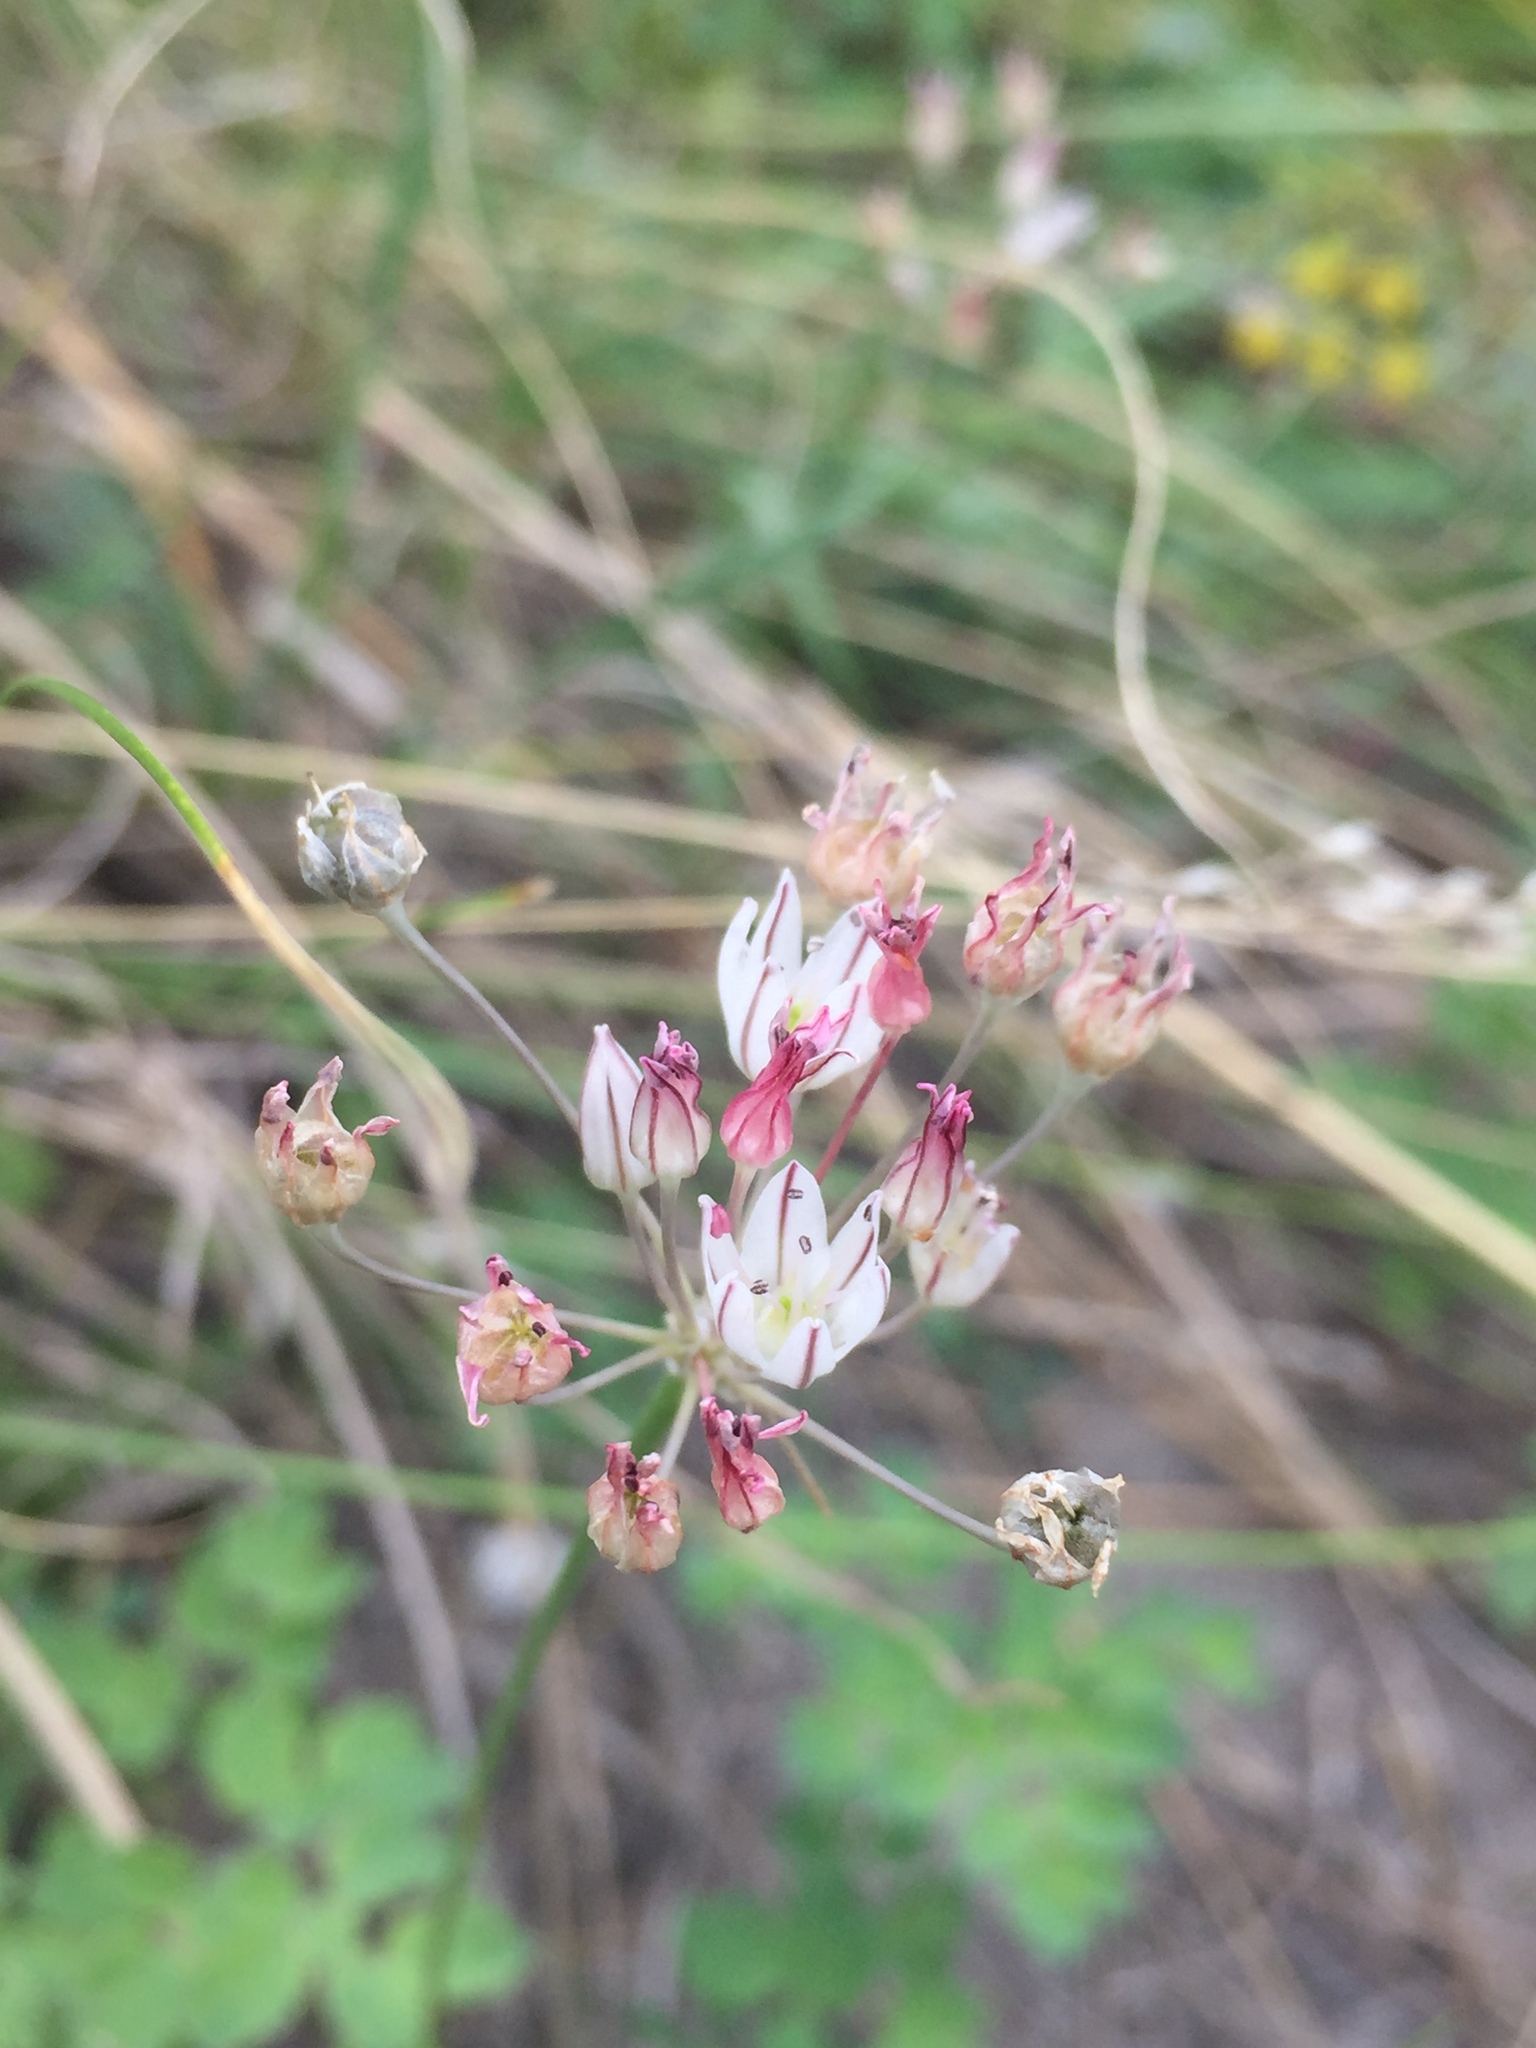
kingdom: Plantae
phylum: Tracheophyta
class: Liliopsida
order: Asparagales
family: Amaryllidaceae
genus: Allium
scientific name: Allium inaequale
